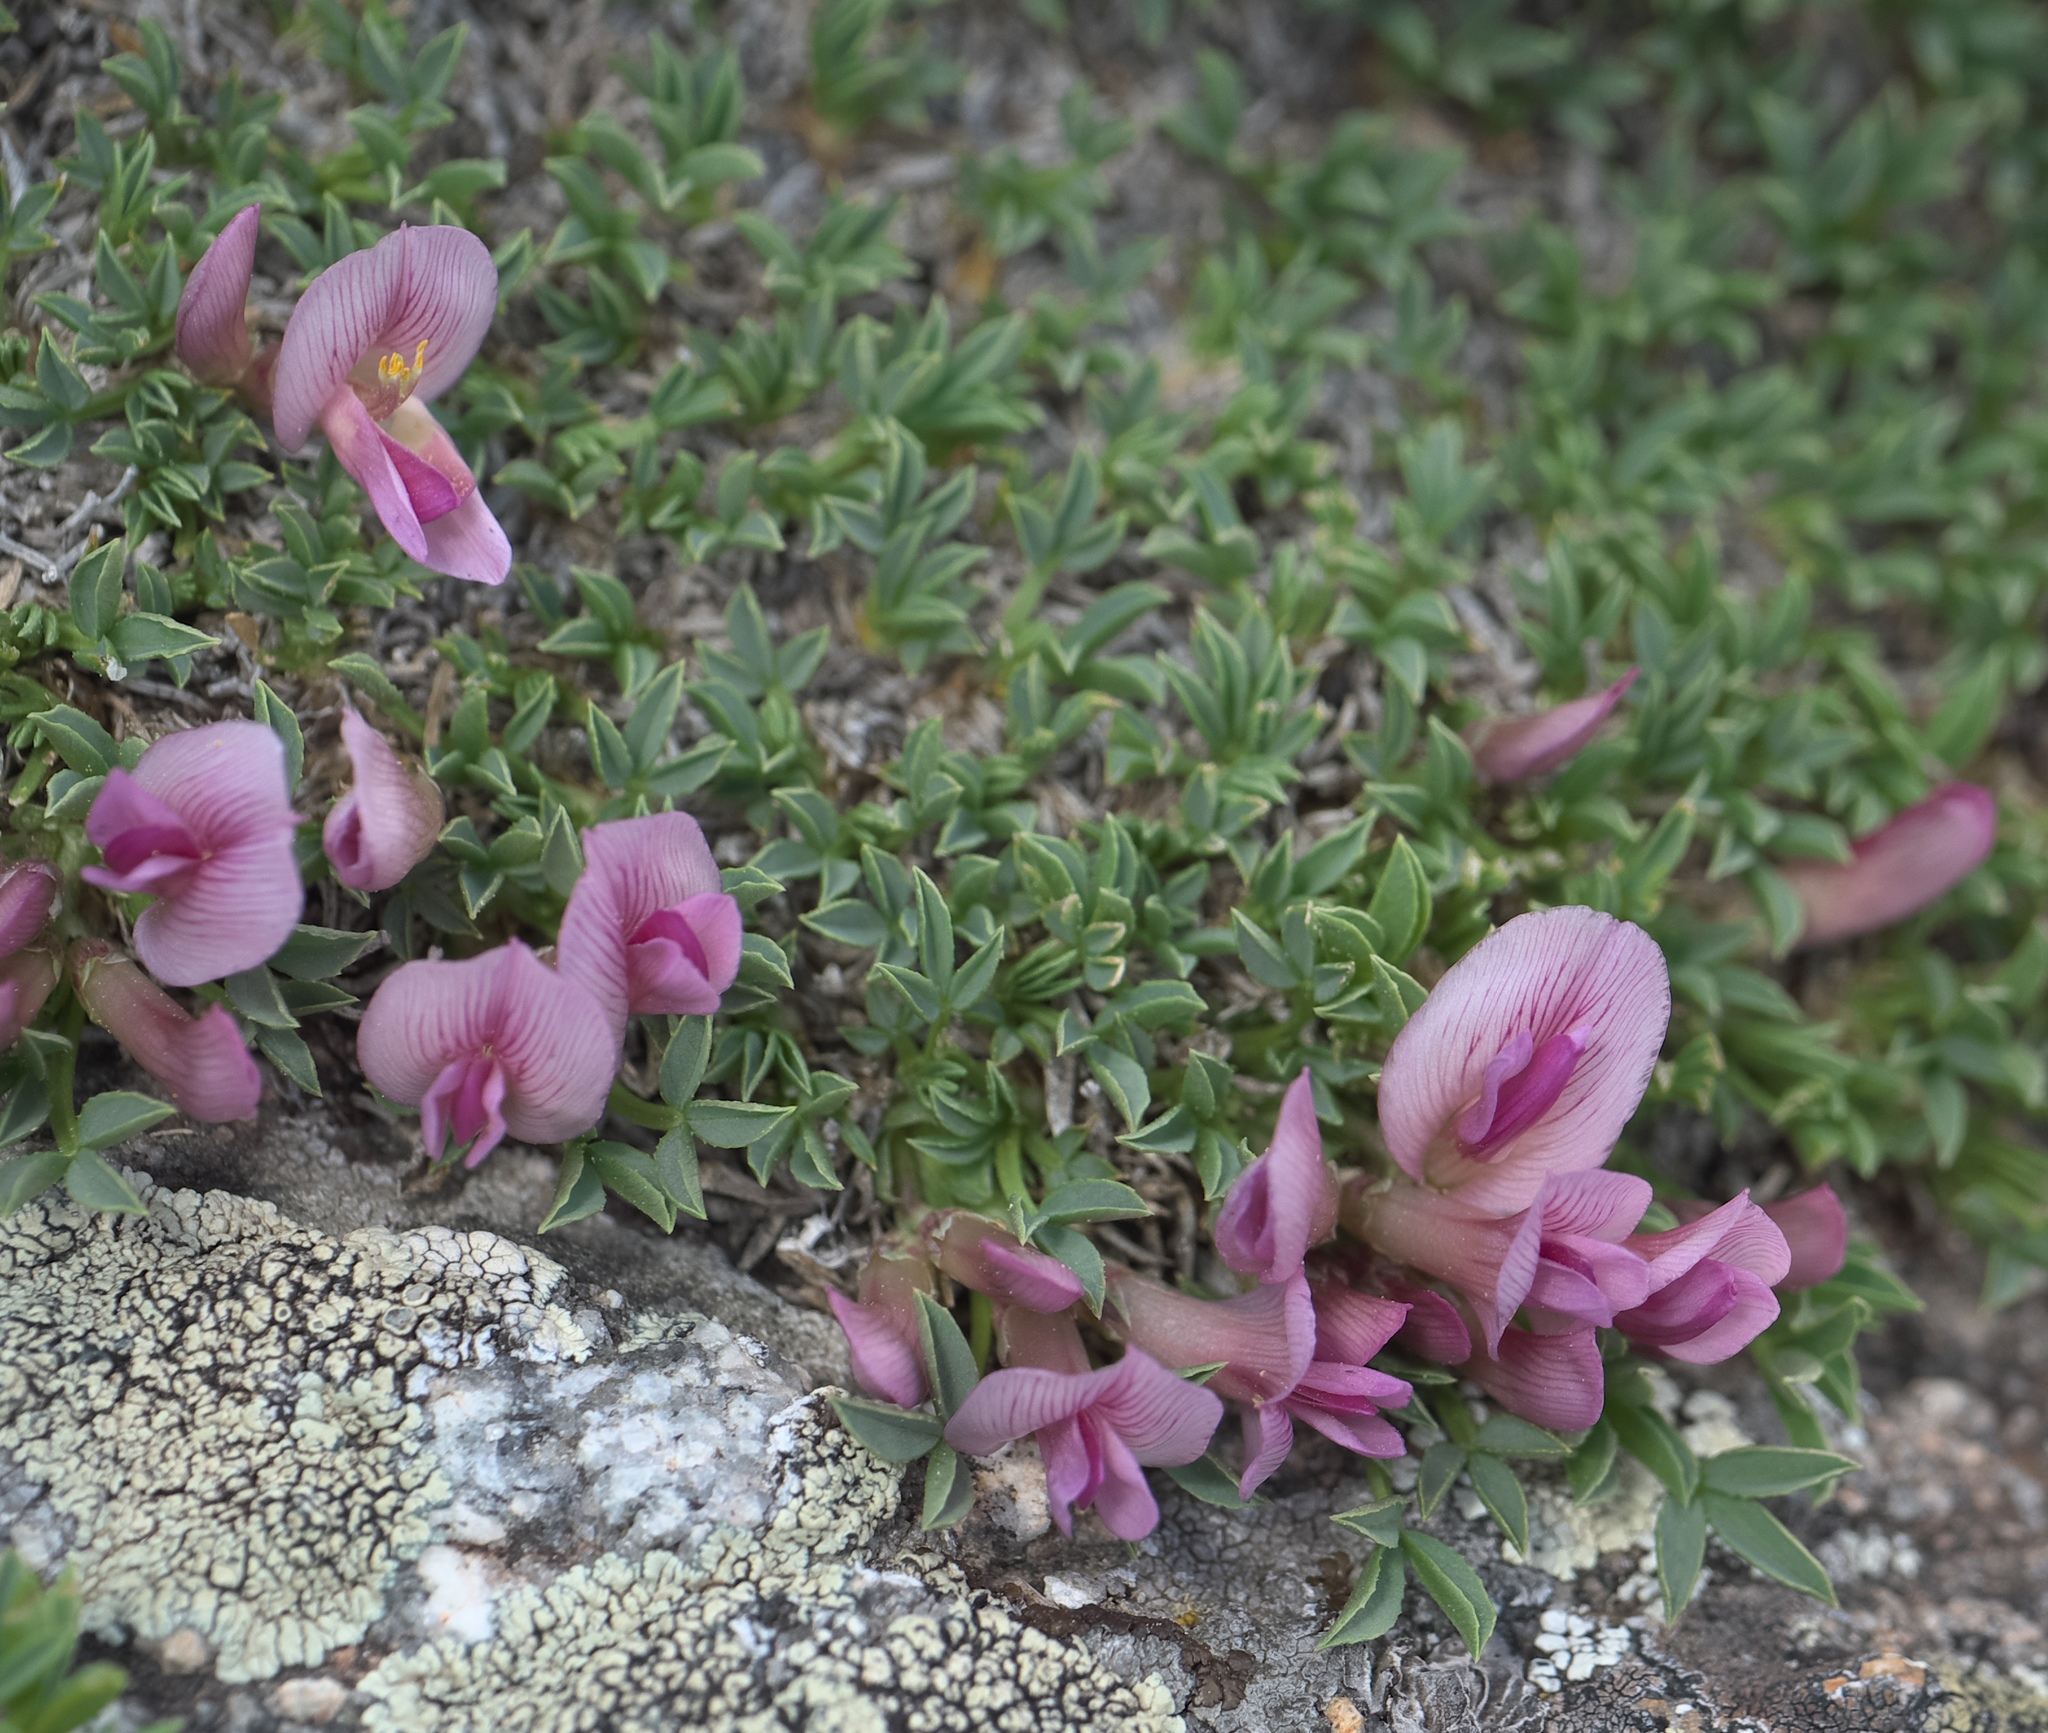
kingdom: Plantae
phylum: Tracheophyta
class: Magnoliopsida
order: Fabales
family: Fabaceae
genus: Trifolium
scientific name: Trifolium nanum
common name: Tundra clover
